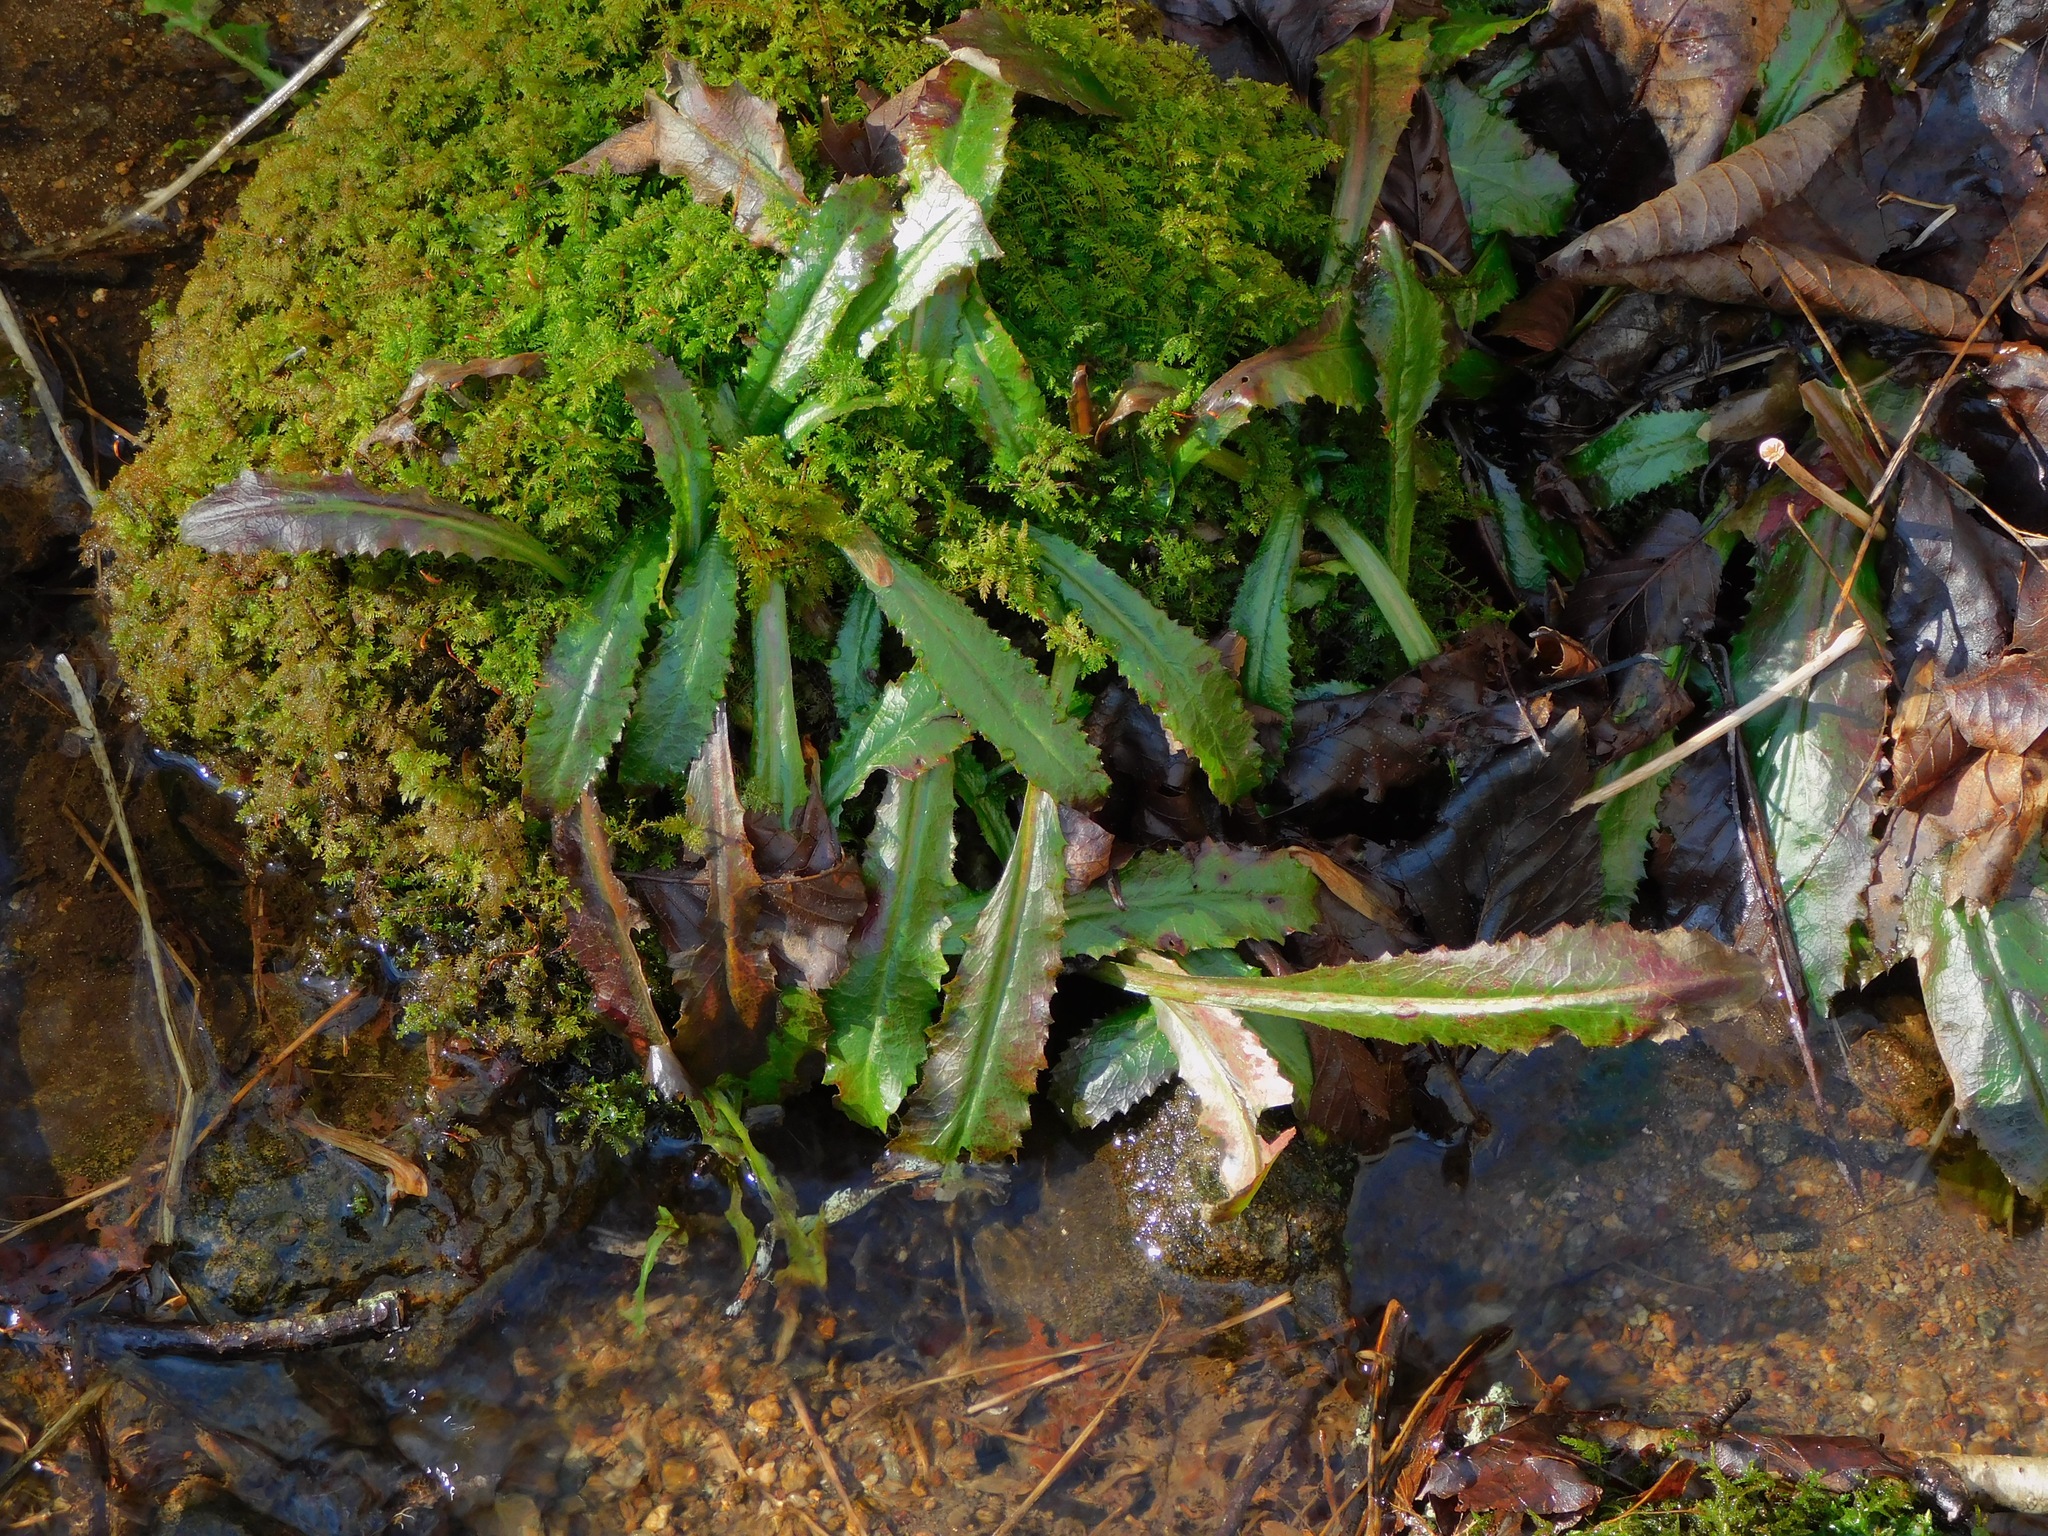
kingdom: Plantae
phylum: Tracheophyta
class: Magnoliopsida
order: Saxifragales
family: Saxifragaceae
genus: Micranthes
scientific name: Micranthes micranthidifolia
